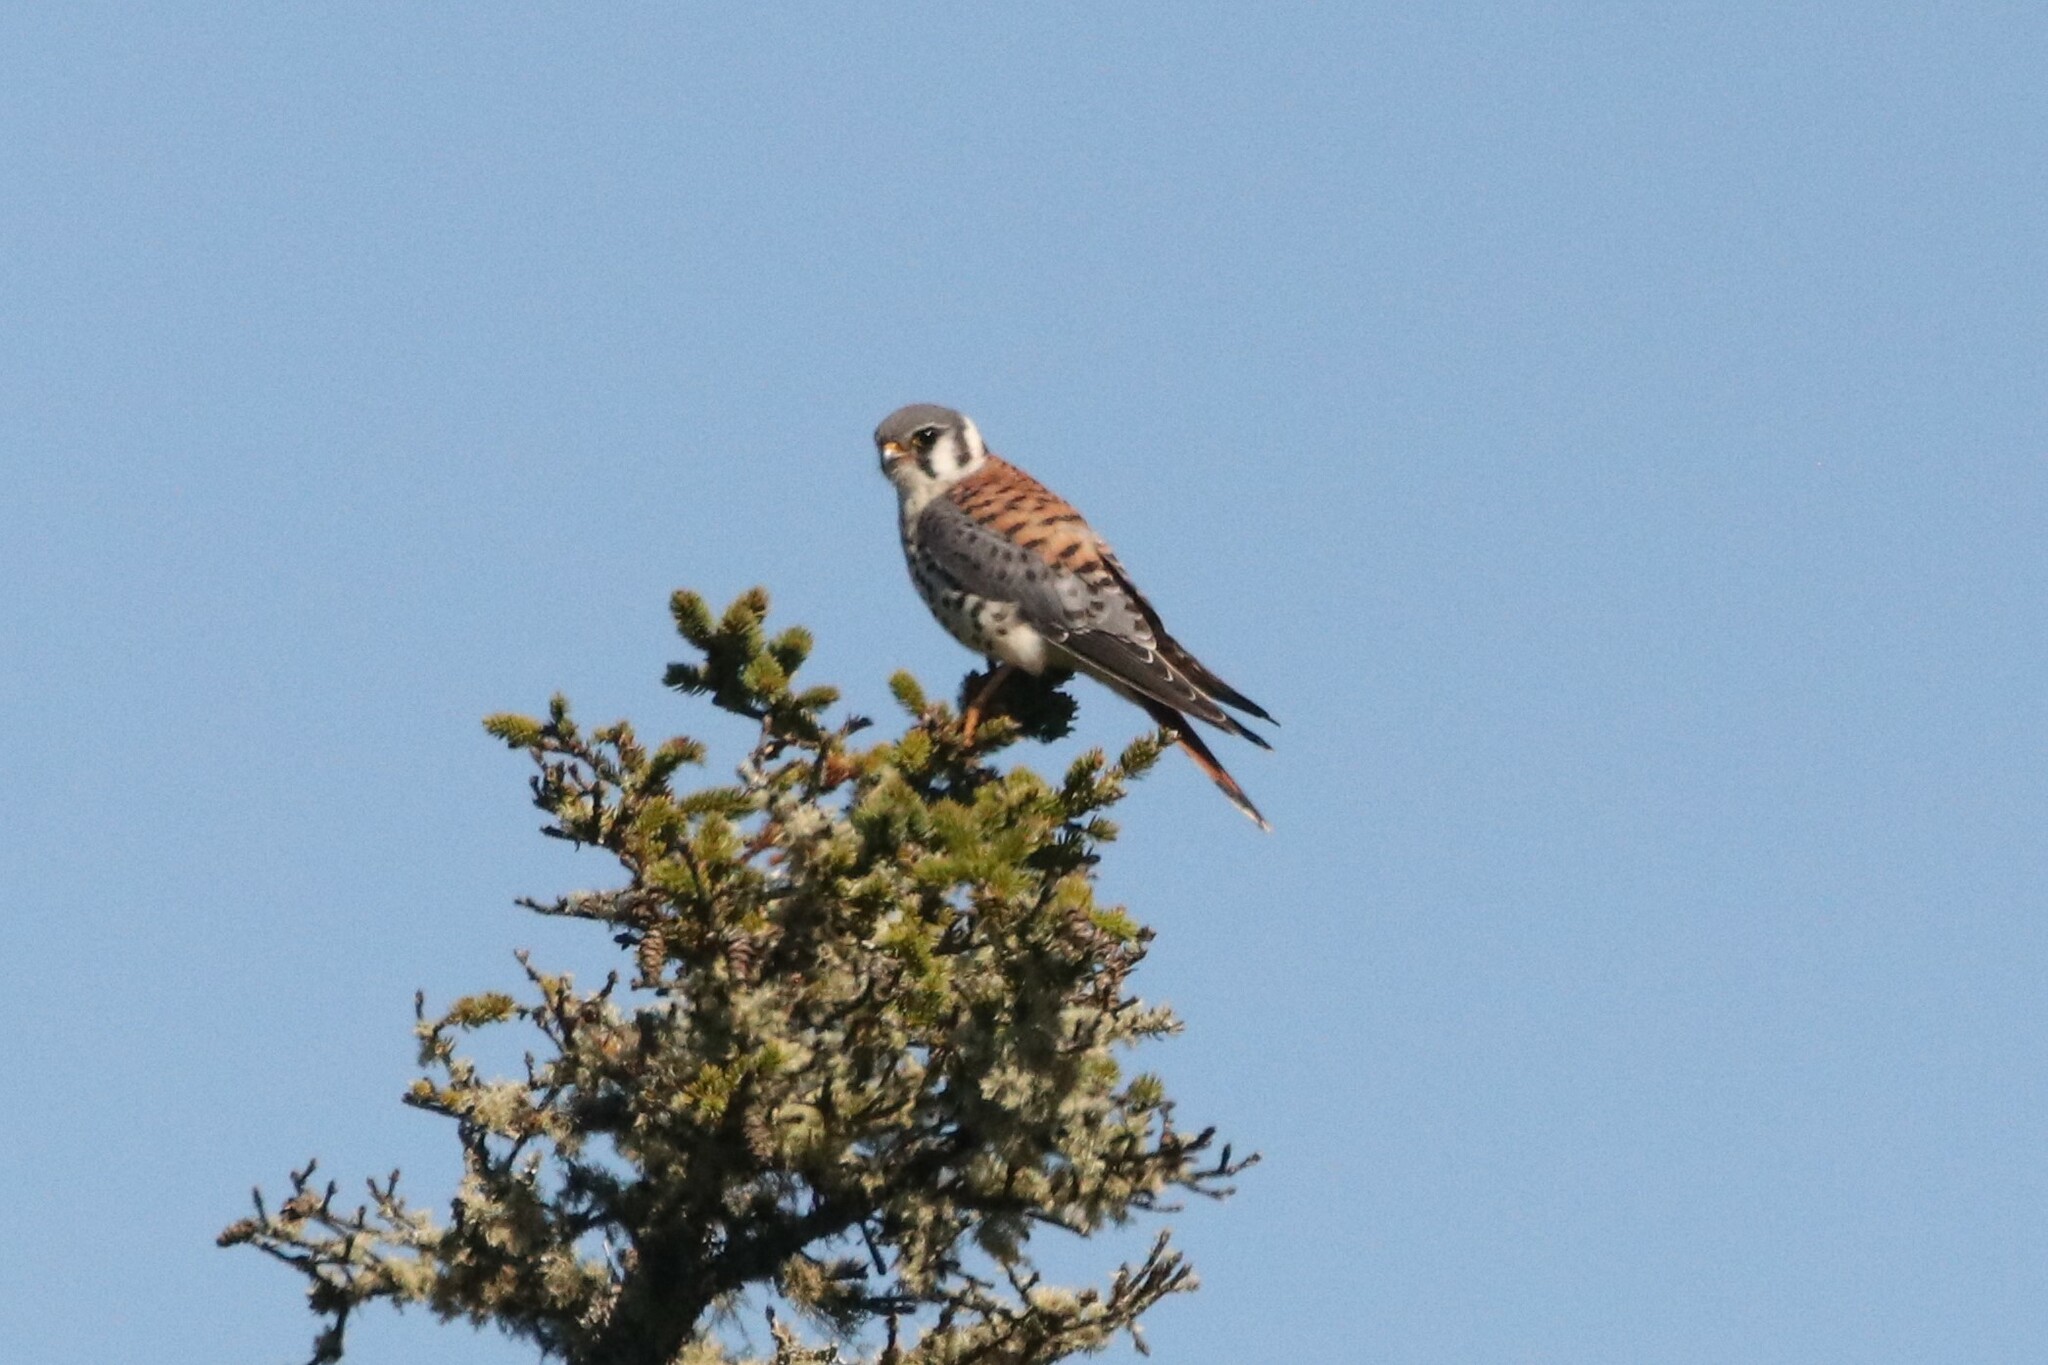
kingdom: Animalia
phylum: Chordata
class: Aves
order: Falconiformes
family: Falconidae
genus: Falco
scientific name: Falco sparverius
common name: American kestrel
